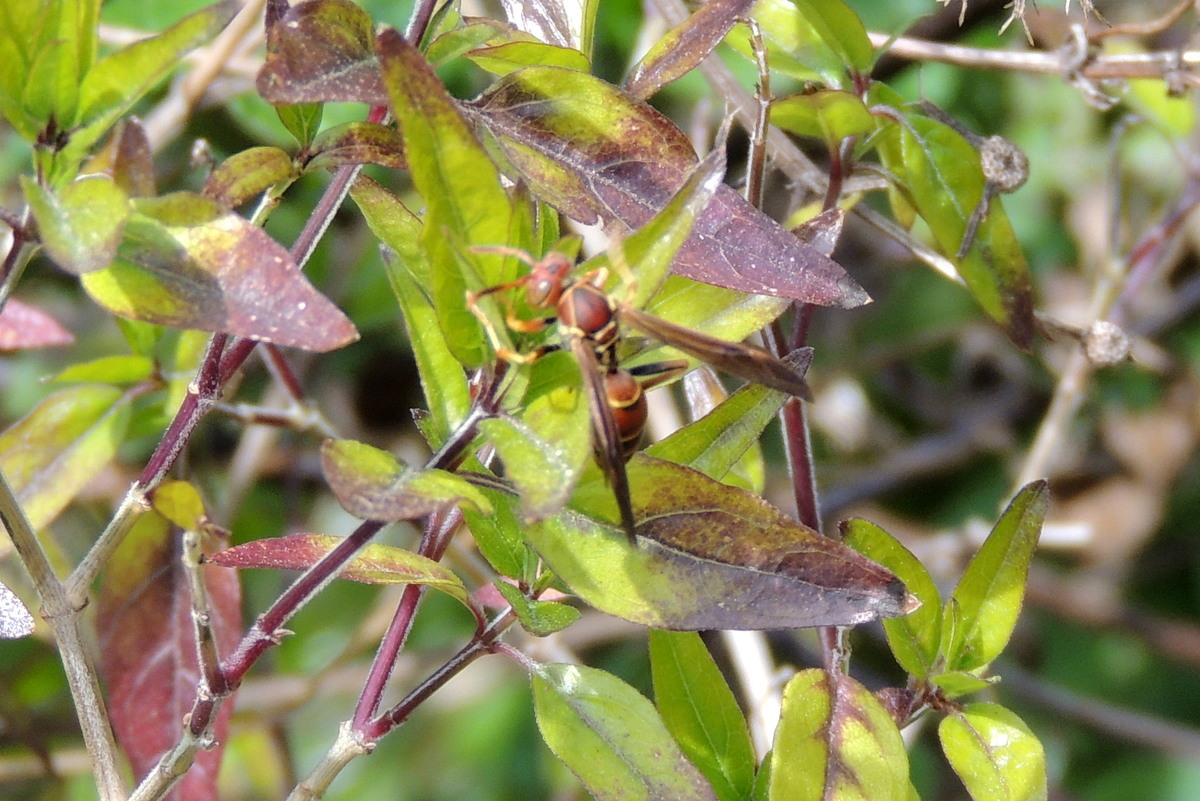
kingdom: Animalia
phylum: Arthropoda
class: Insecta
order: Hymenoptera
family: Eumenidae
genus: Polistes
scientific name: Polistes dorsalis
